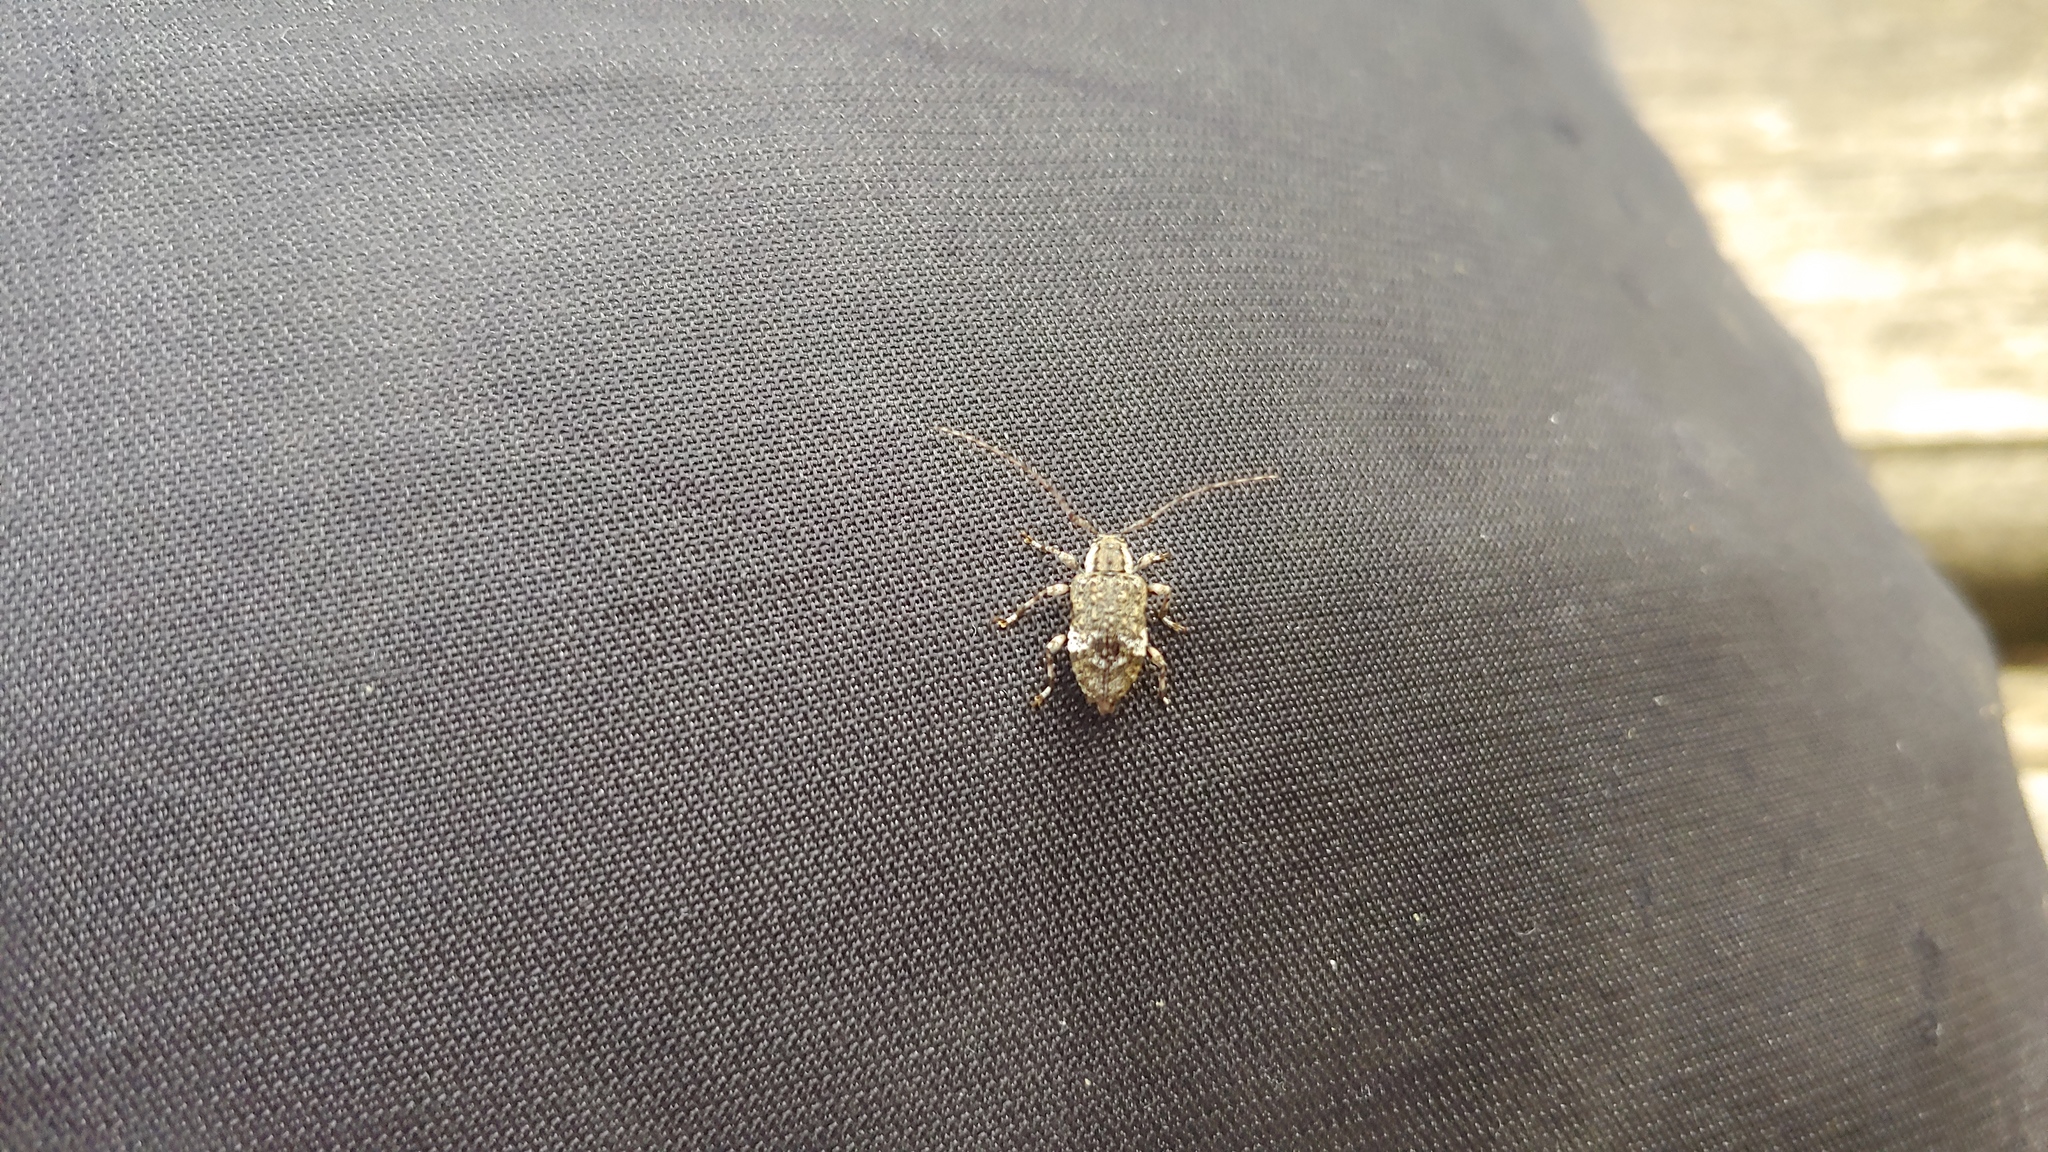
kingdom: Animalia
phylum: Arthropoda
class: Insecta
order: Coleoptera
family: Cerambycidae
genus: Astylopsis
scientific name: Astylopsis macula
